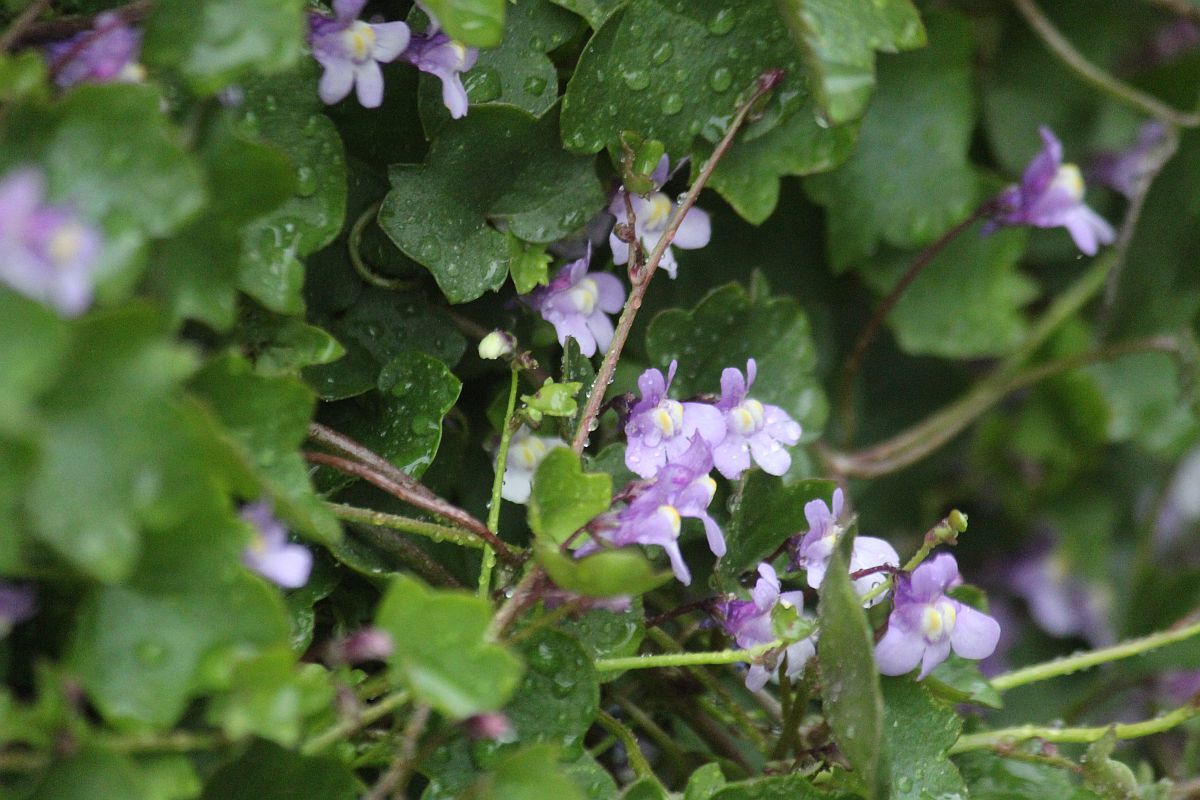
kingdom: Plantae
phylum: Tracheophyta
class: Magnoliopsida
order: Lamiales
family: Plantaginaceae
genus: Cymbalaria
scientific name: Cymbalaria muralis
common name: Ivy-leaved toadflax
